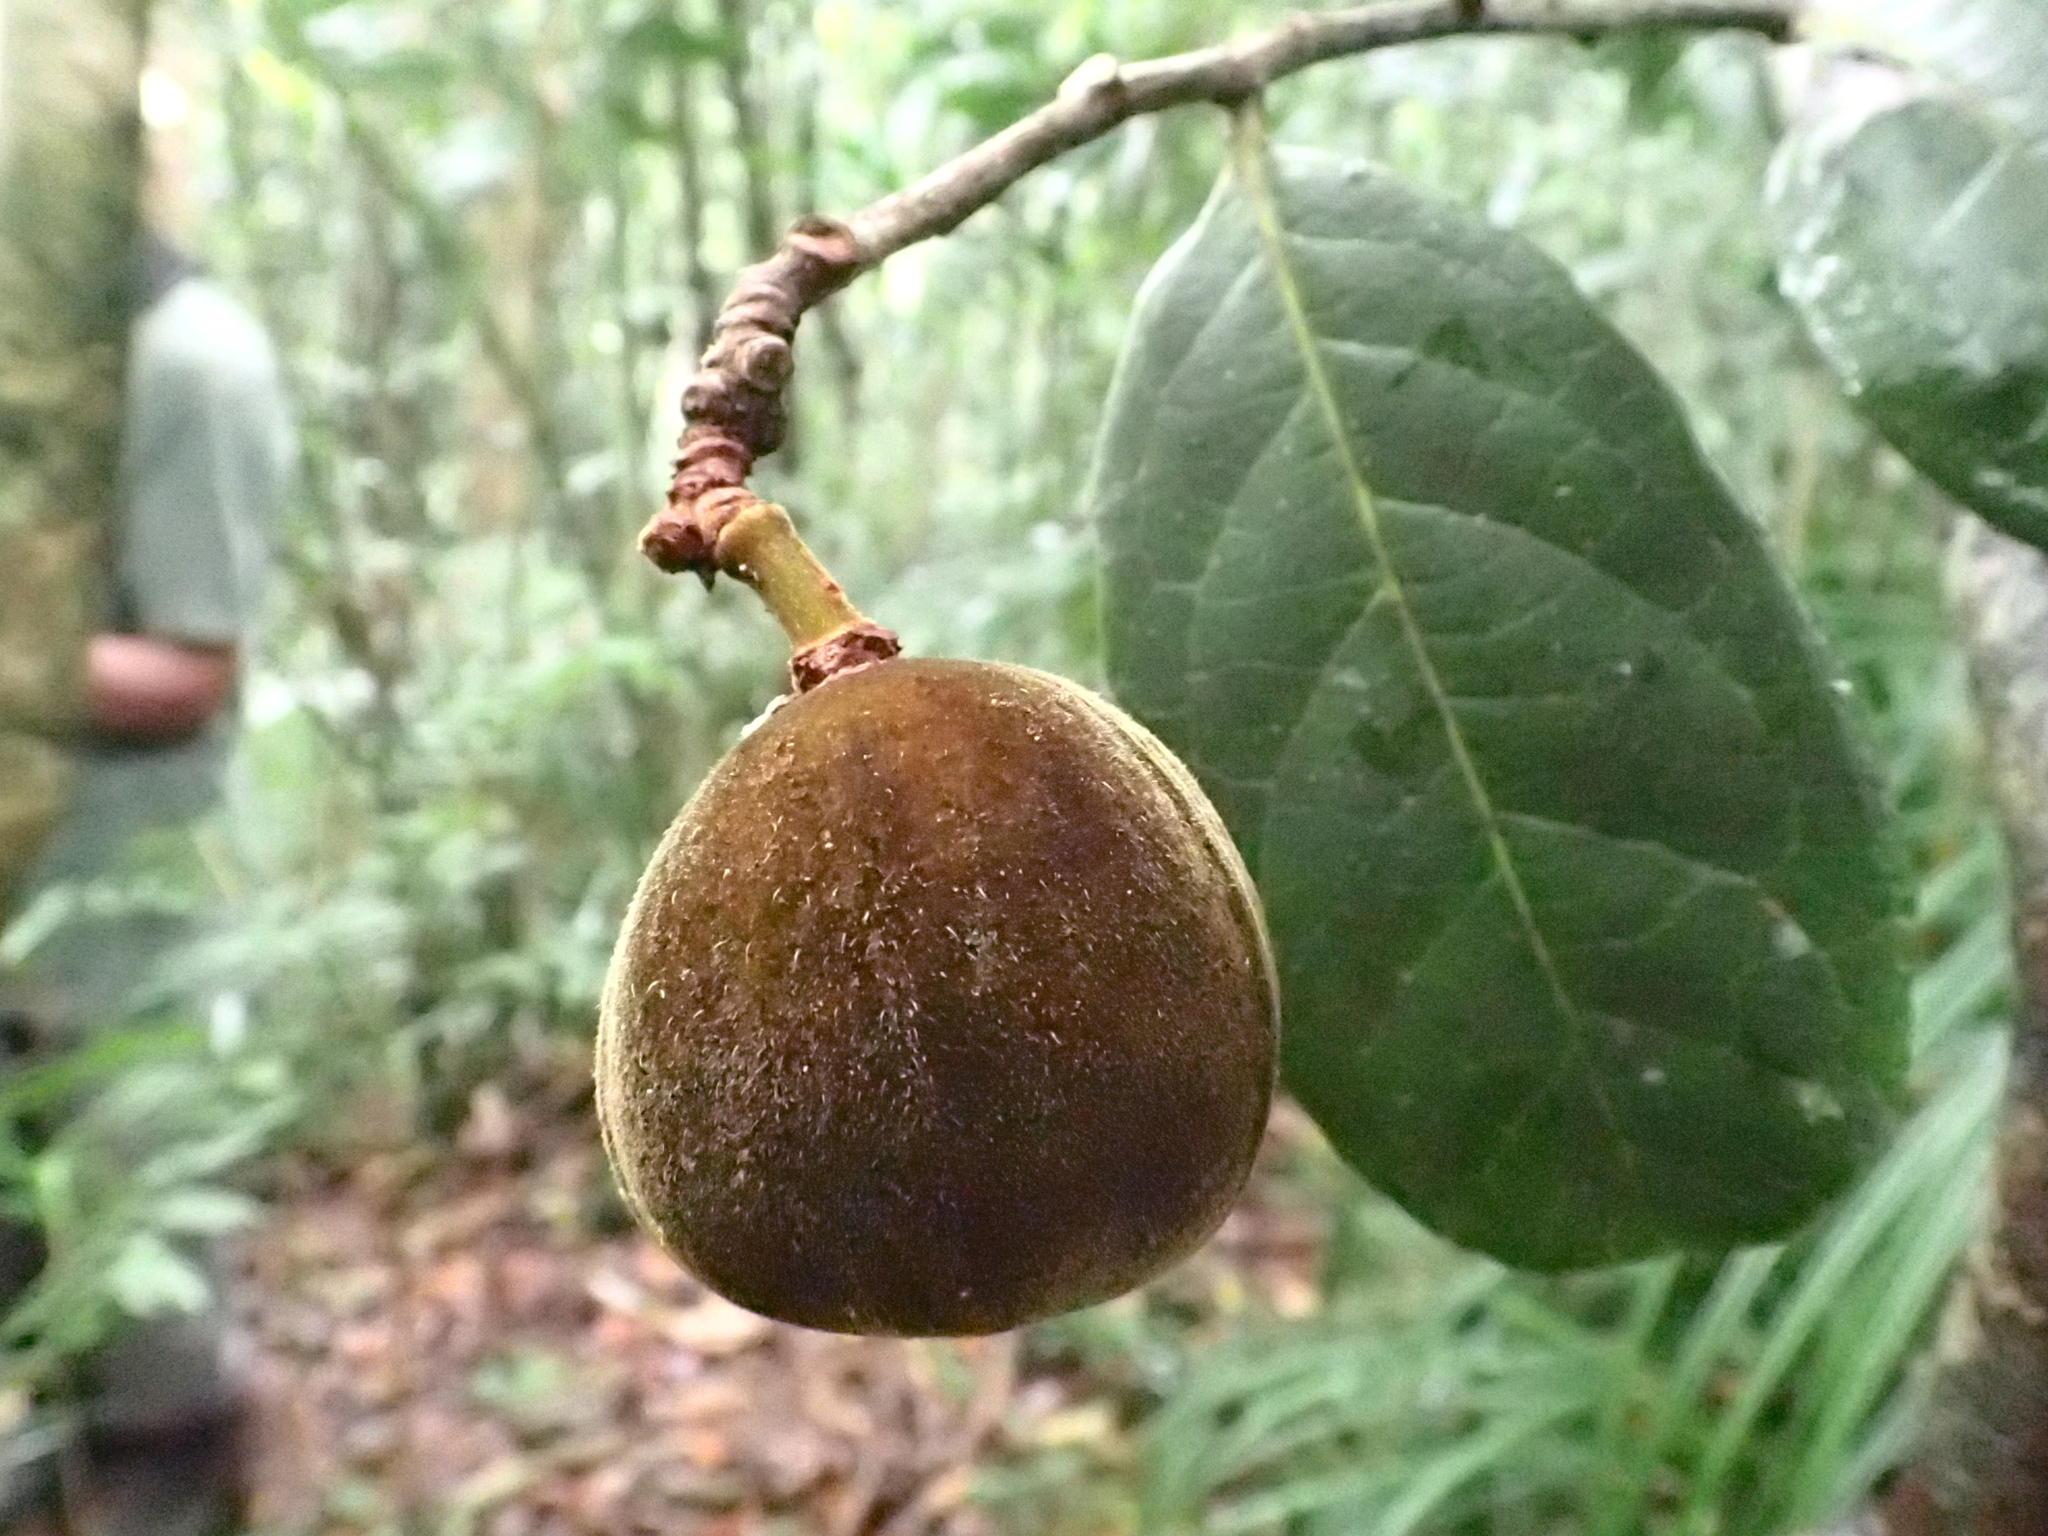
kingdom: Plantae
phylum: Tracheophyta
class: Magnoliopsida
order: Malpighiales
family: Passifloraceae
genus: Paropsia
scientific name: Paropsia humblotii
